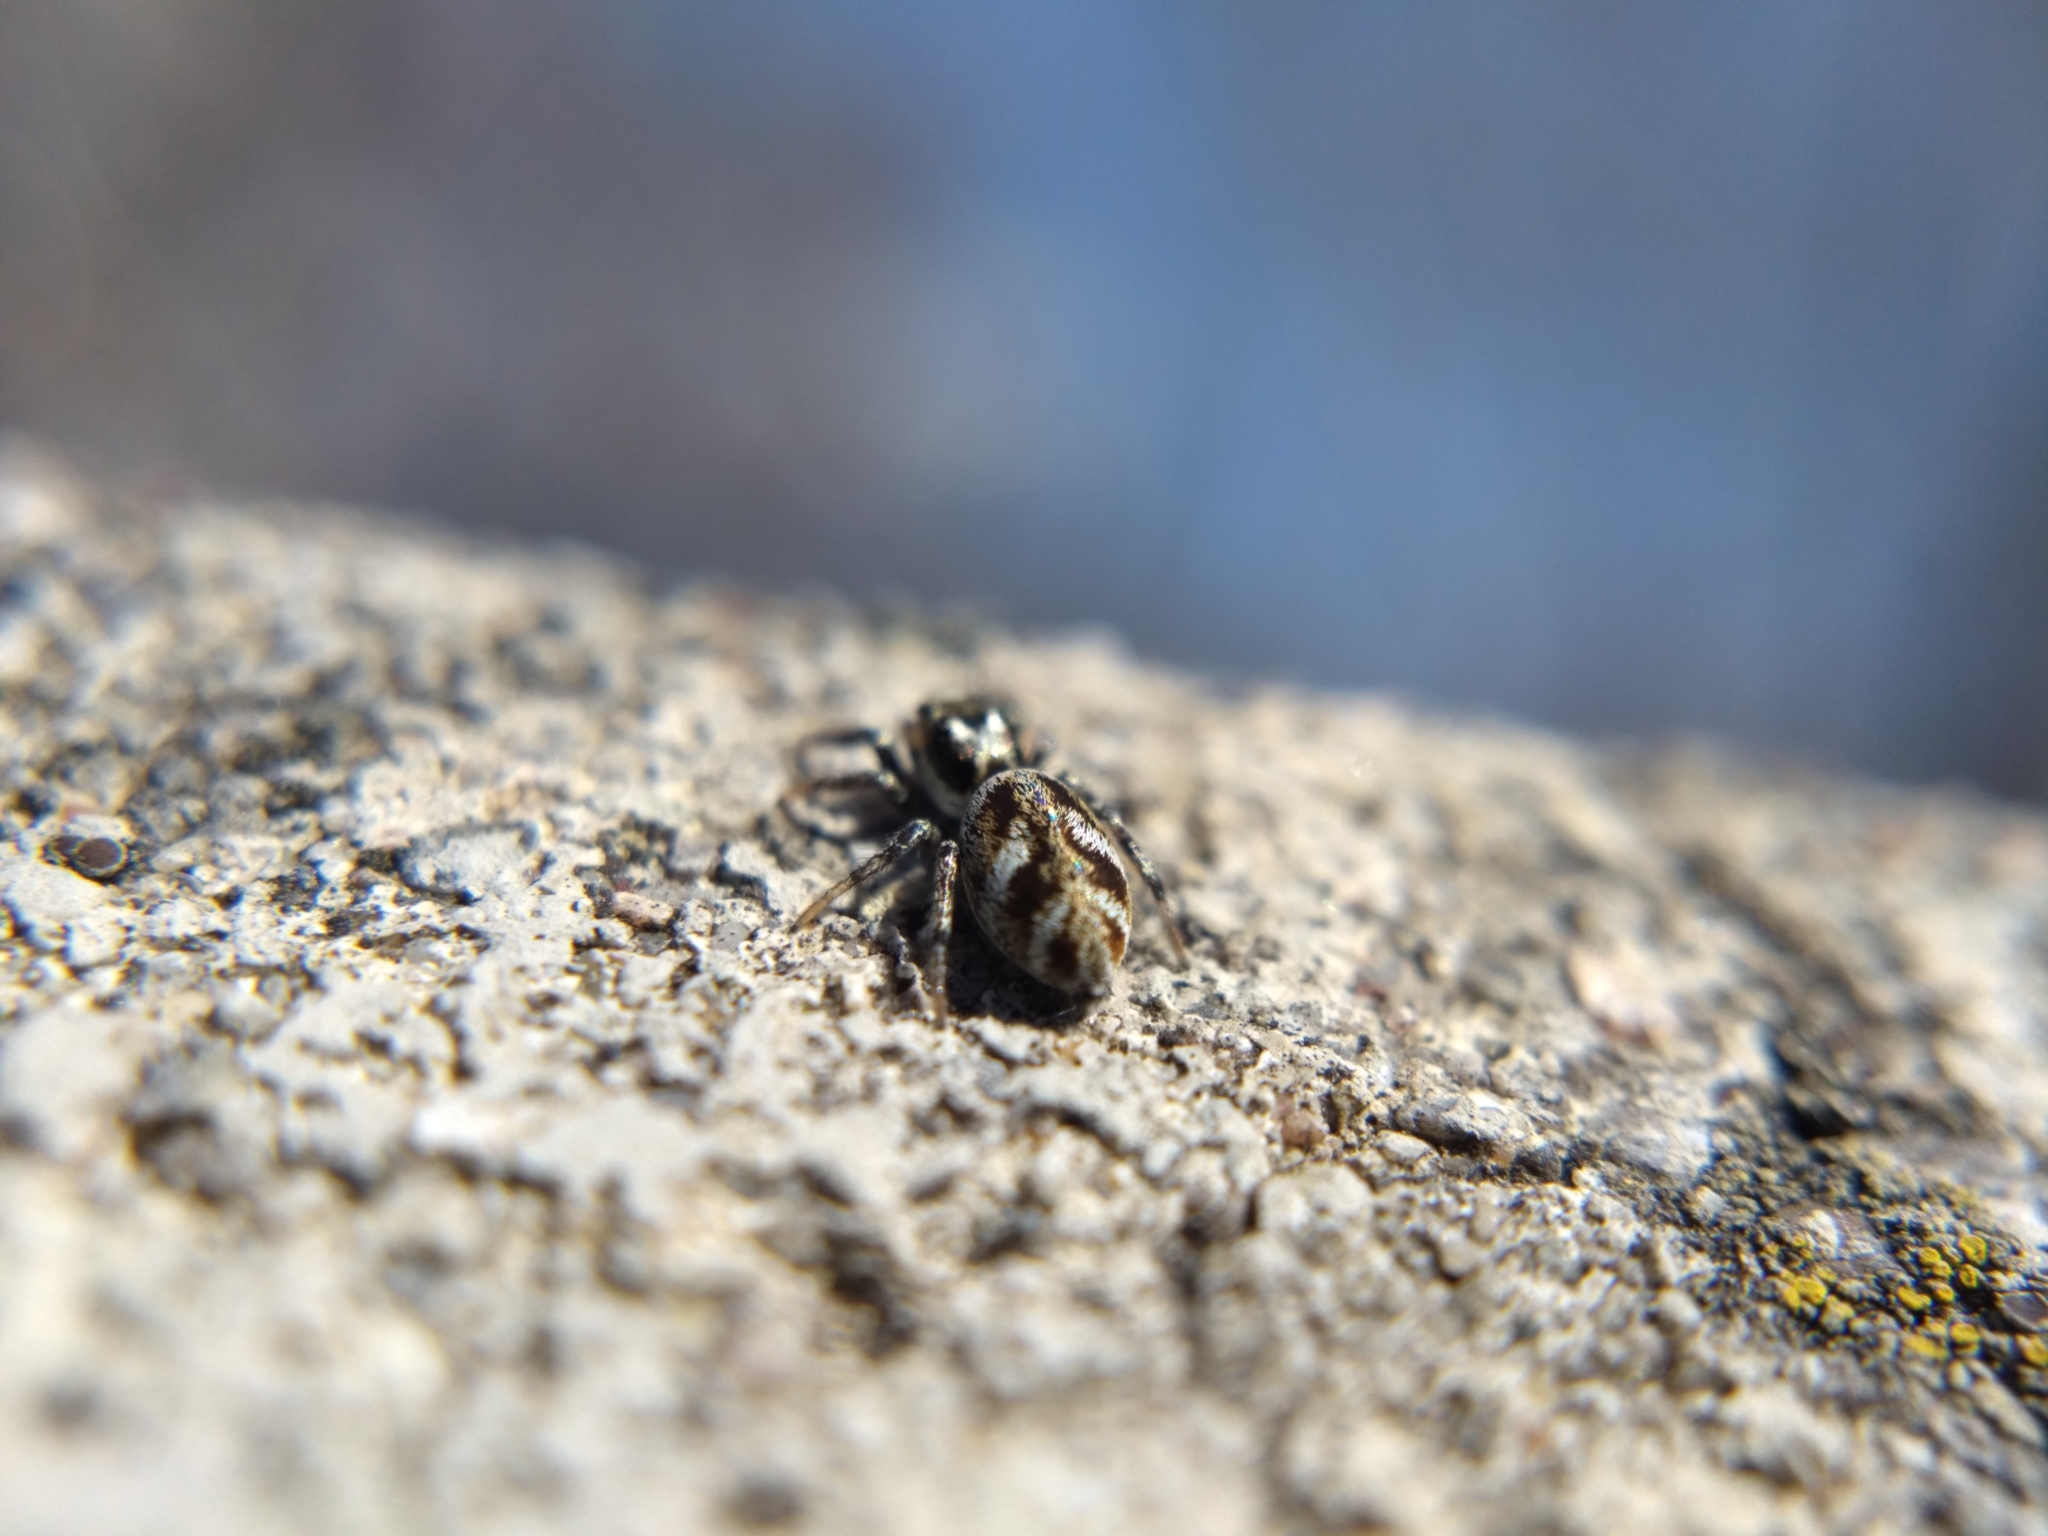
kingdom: Animalia
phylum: Arthropoda
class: Arachnida
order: Araneae
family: Salticidae
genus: Salticus
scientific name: Salticus scenicus
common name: Zebra jumper
